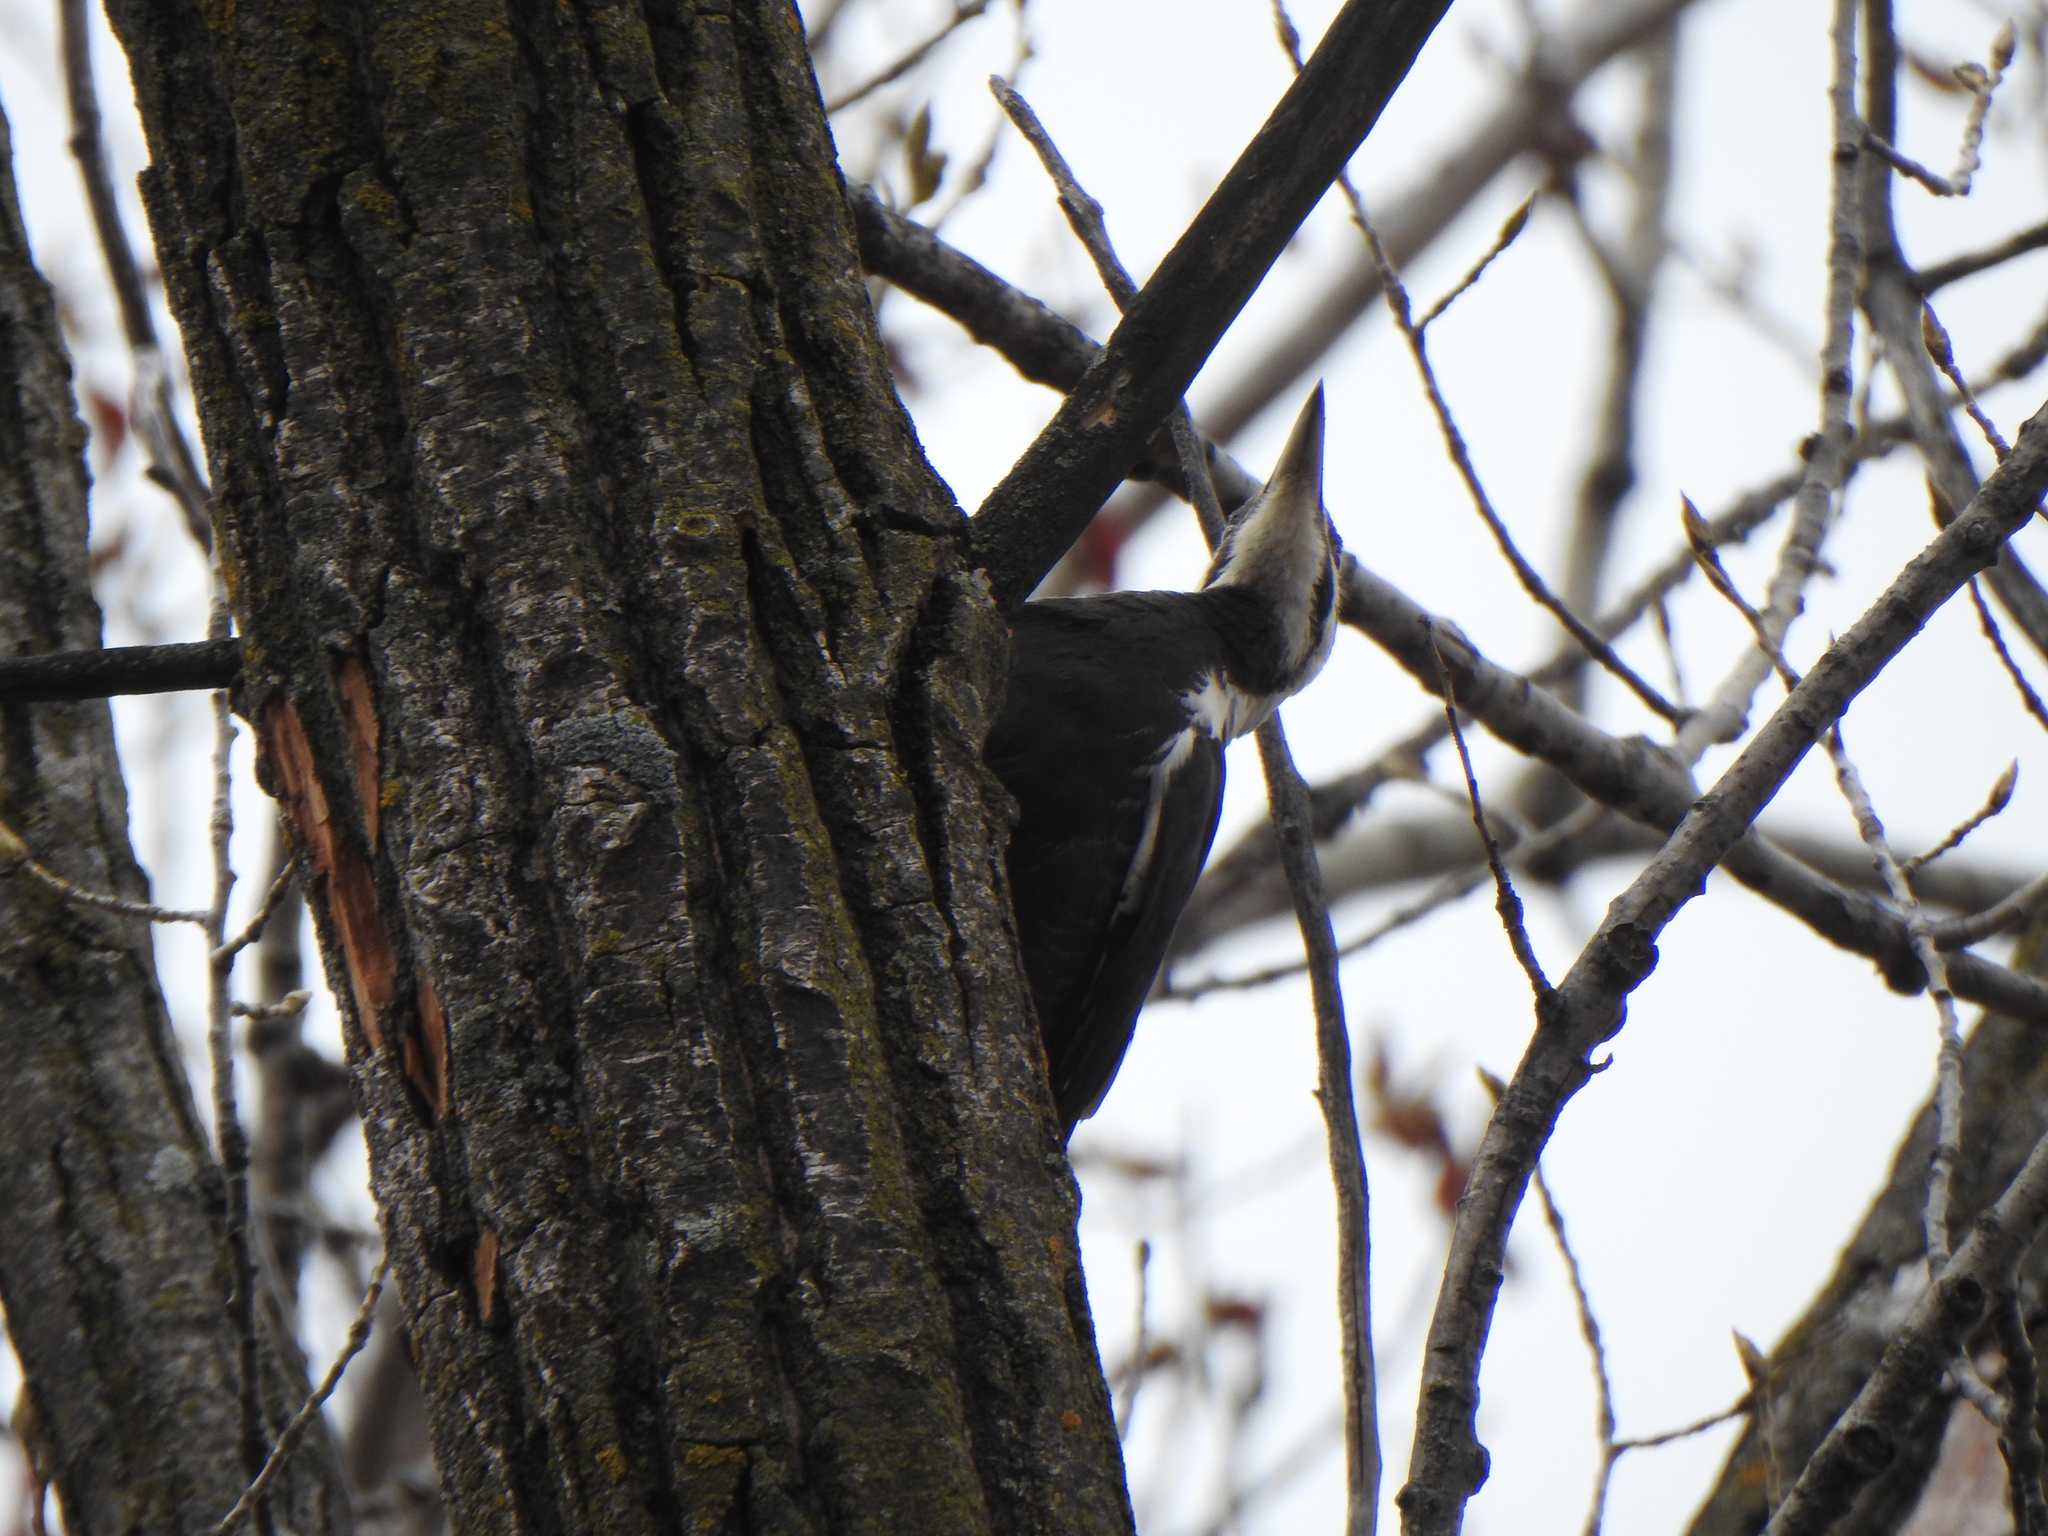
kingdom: Animalia
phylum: Chordata
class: Aves
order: Piciformes
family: Picidae
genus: Dryocopus
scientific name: Dryocopus pileatus
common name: Pileated woodpecker
